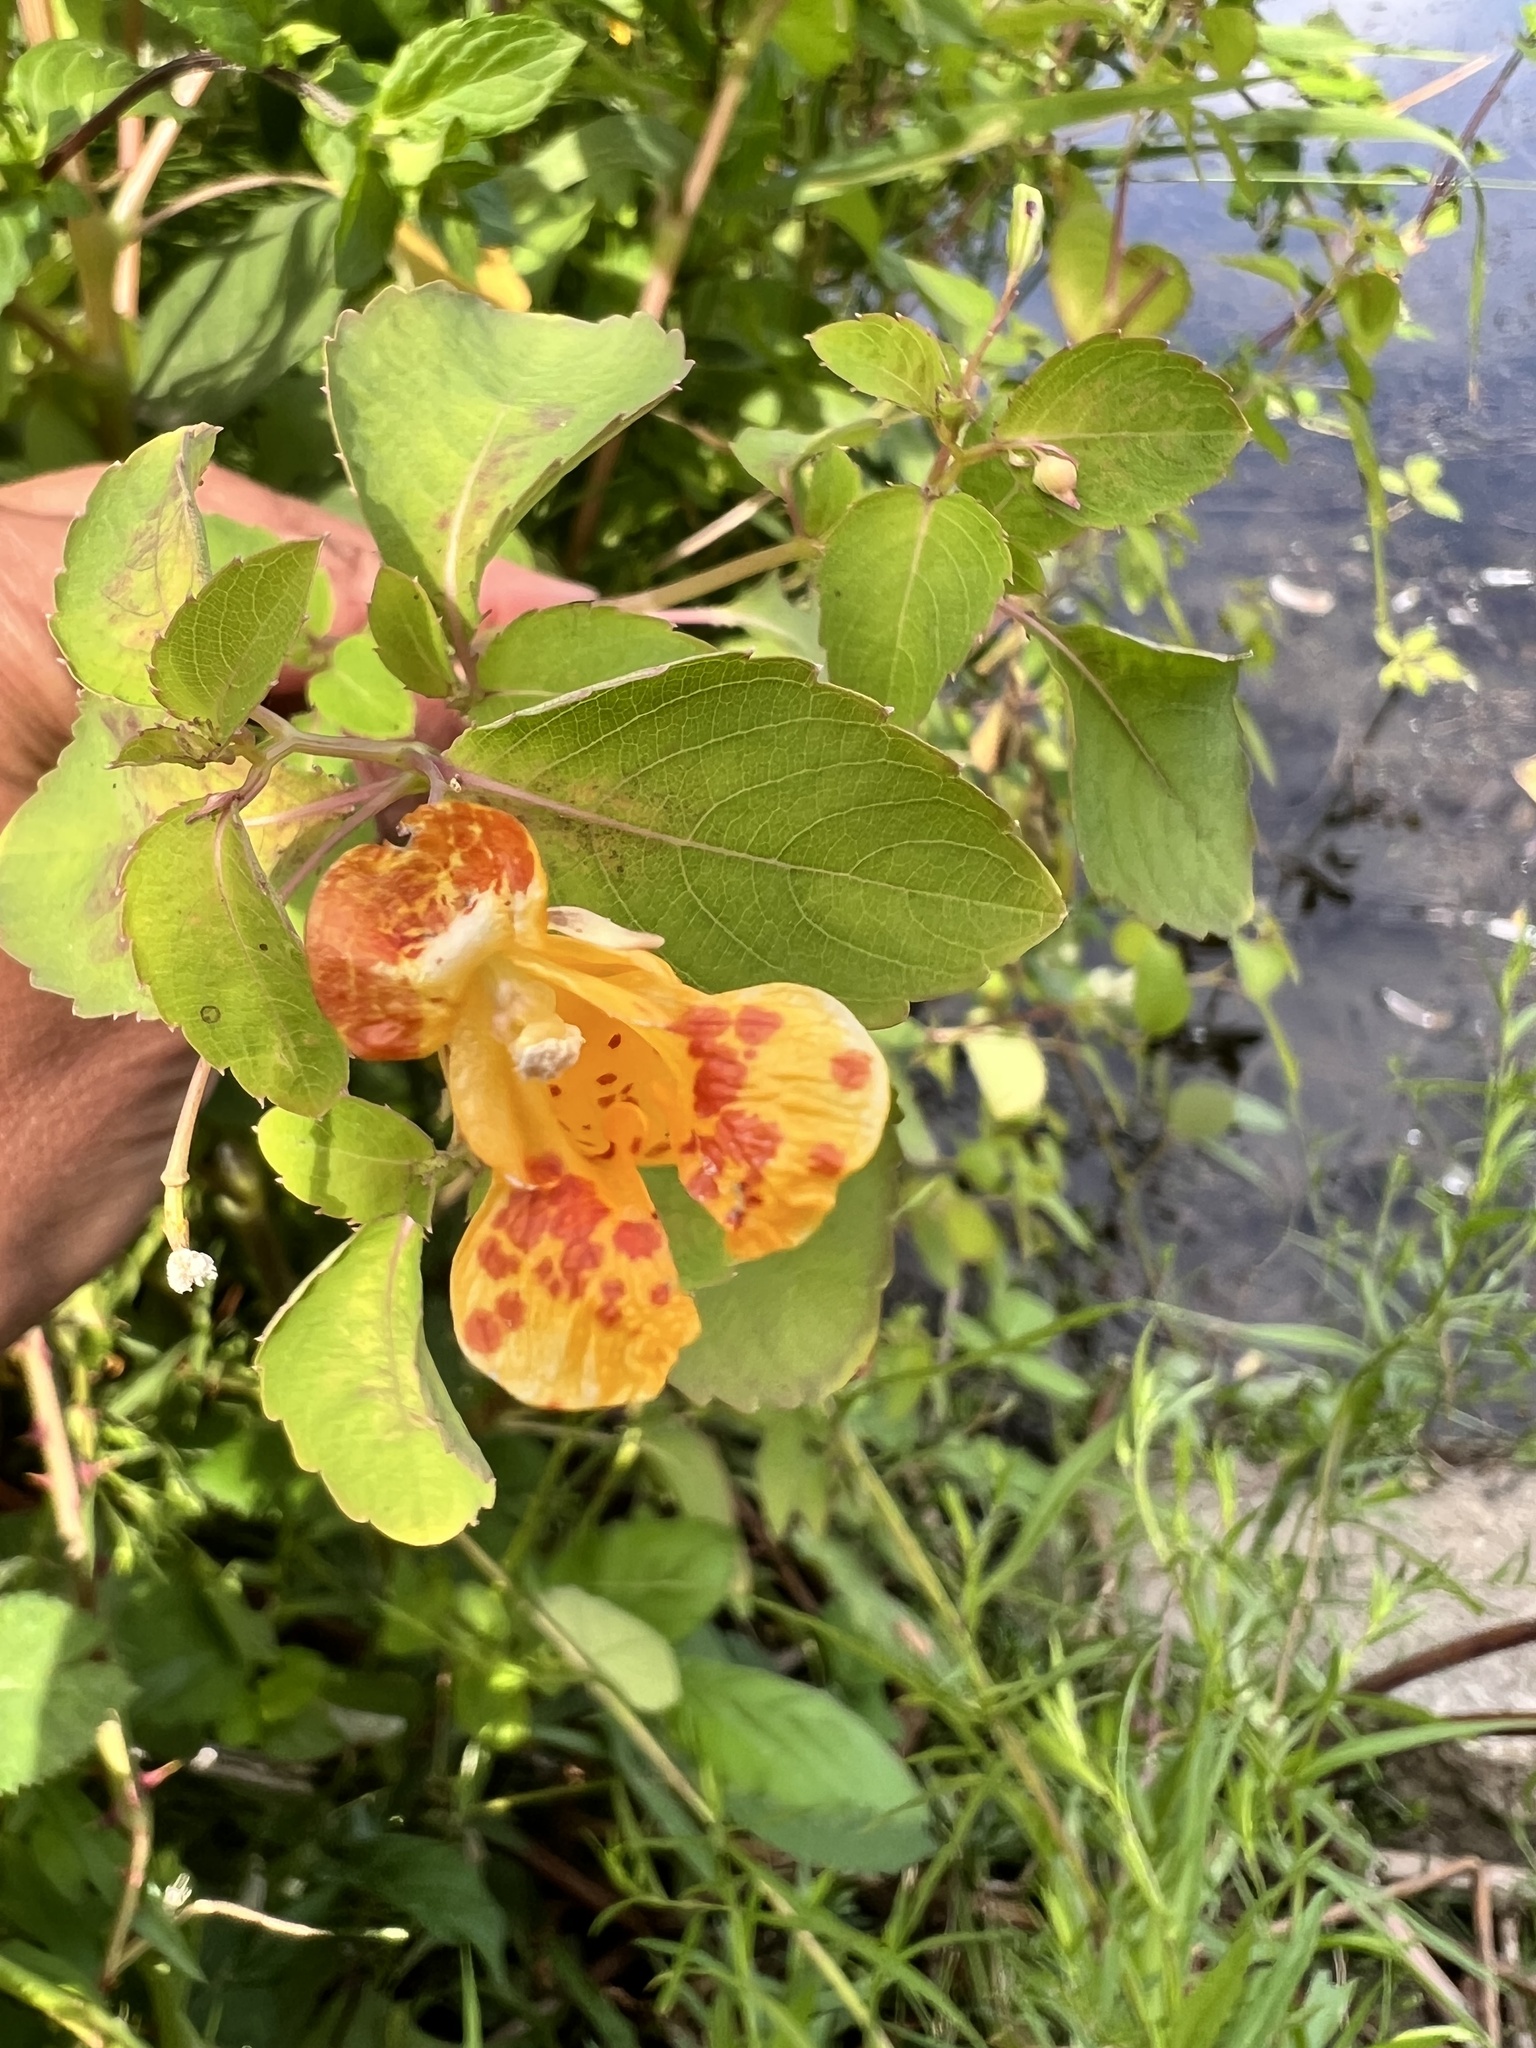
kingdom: Plantae
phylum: Tracheophyta
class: Magnoliopsida
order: Ericales
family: Balsaminaceae
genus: Impatiens
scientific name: Impatiens capensis
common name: Orange balsam
